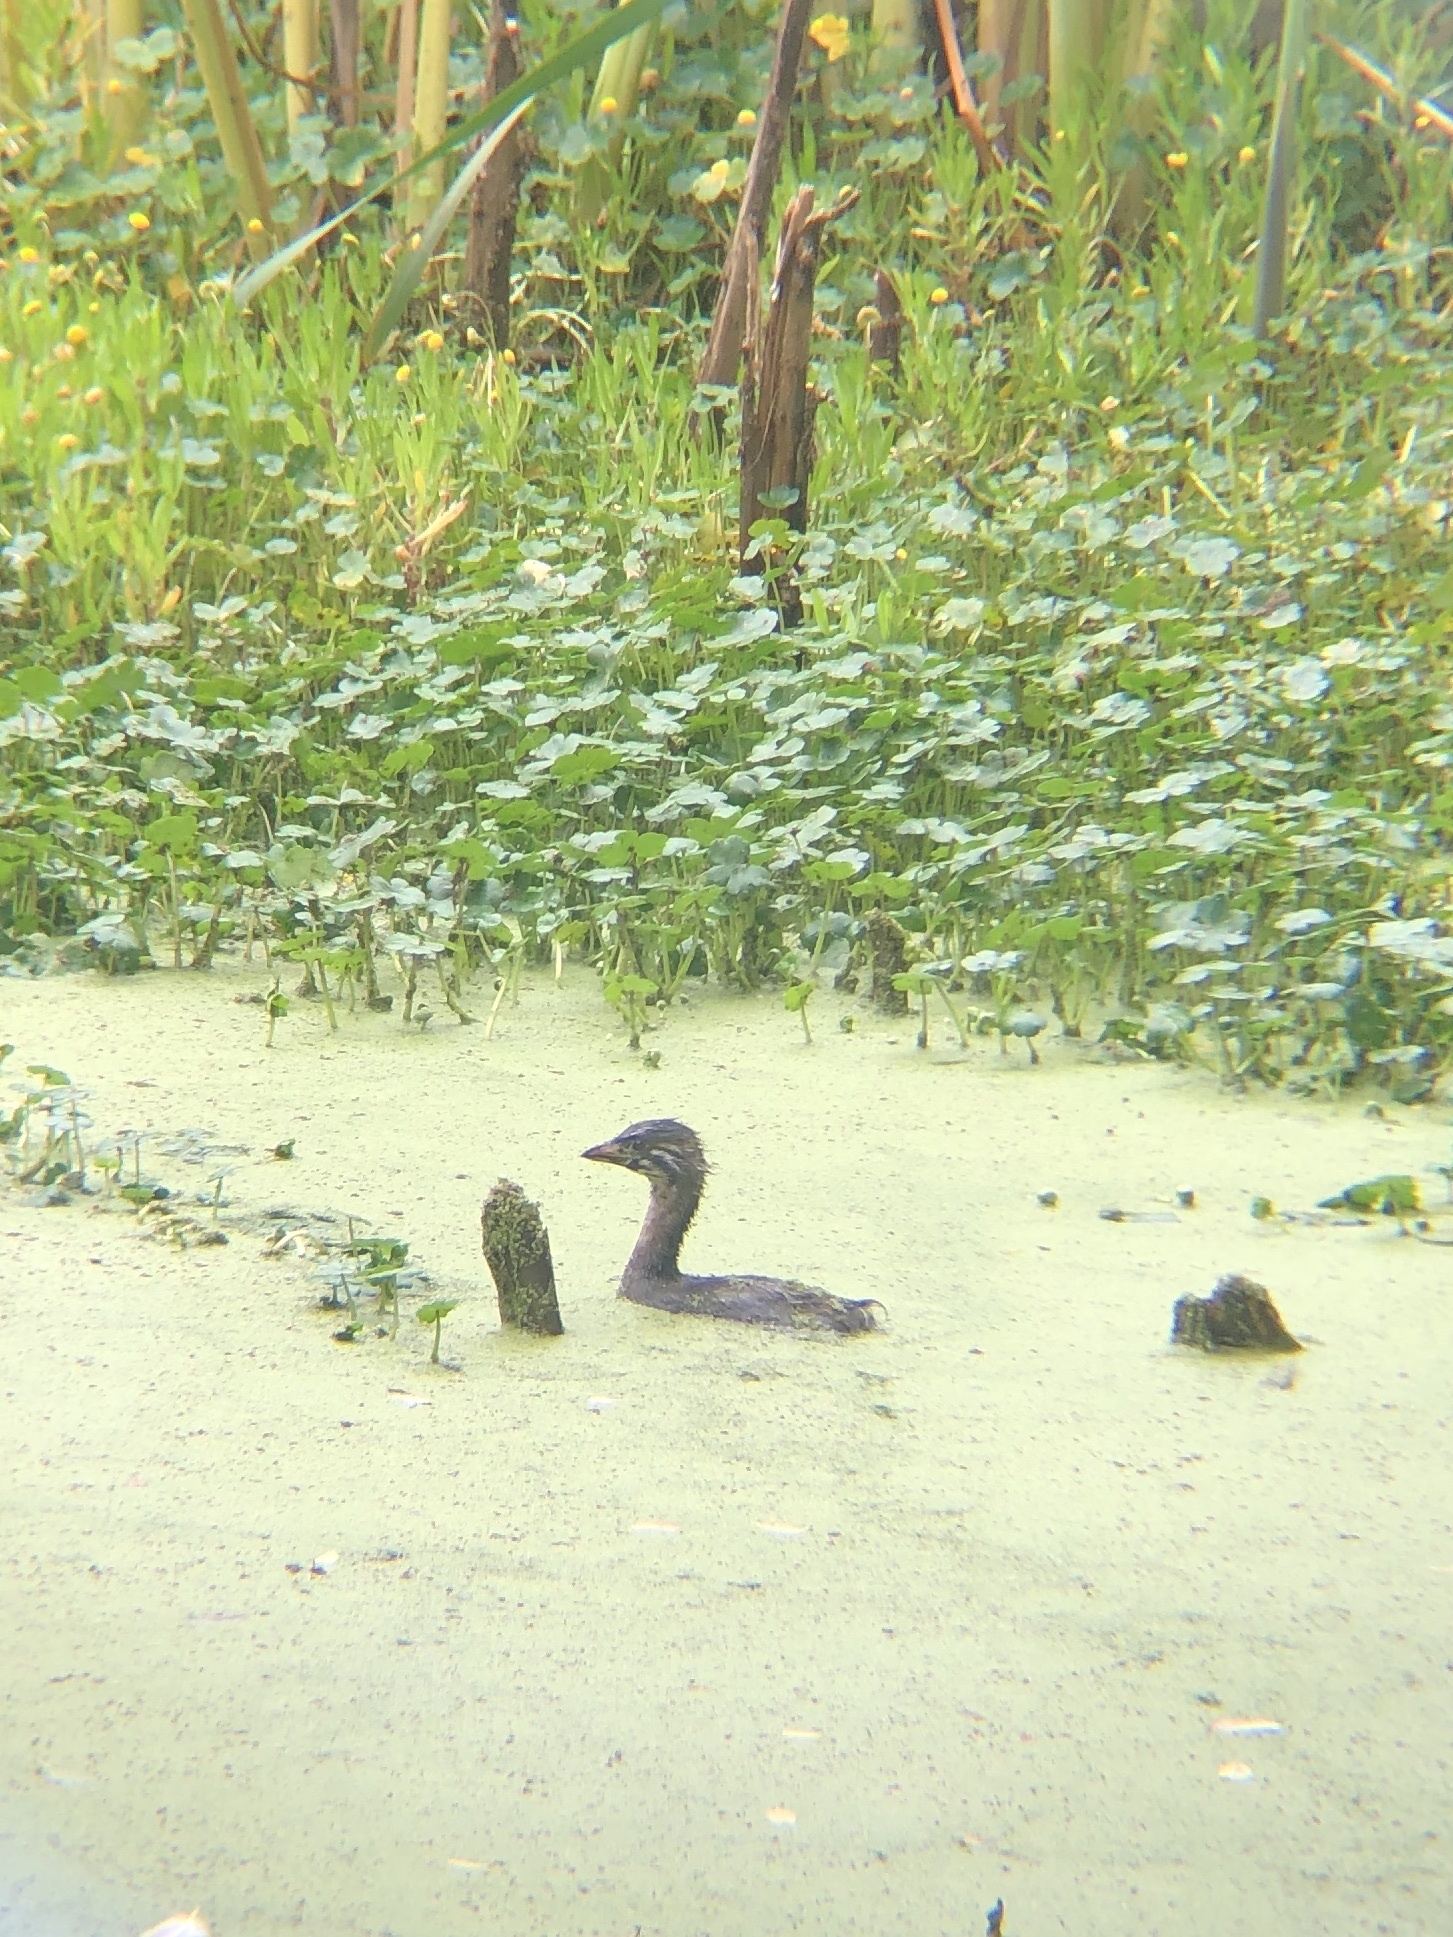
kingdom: Animalia
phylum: Chordata
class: Aves
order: Podicipediformes
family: Podicipedidae
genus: Podilymbus
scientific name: Podilymbus podiceps
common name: Pied-billed grebe
